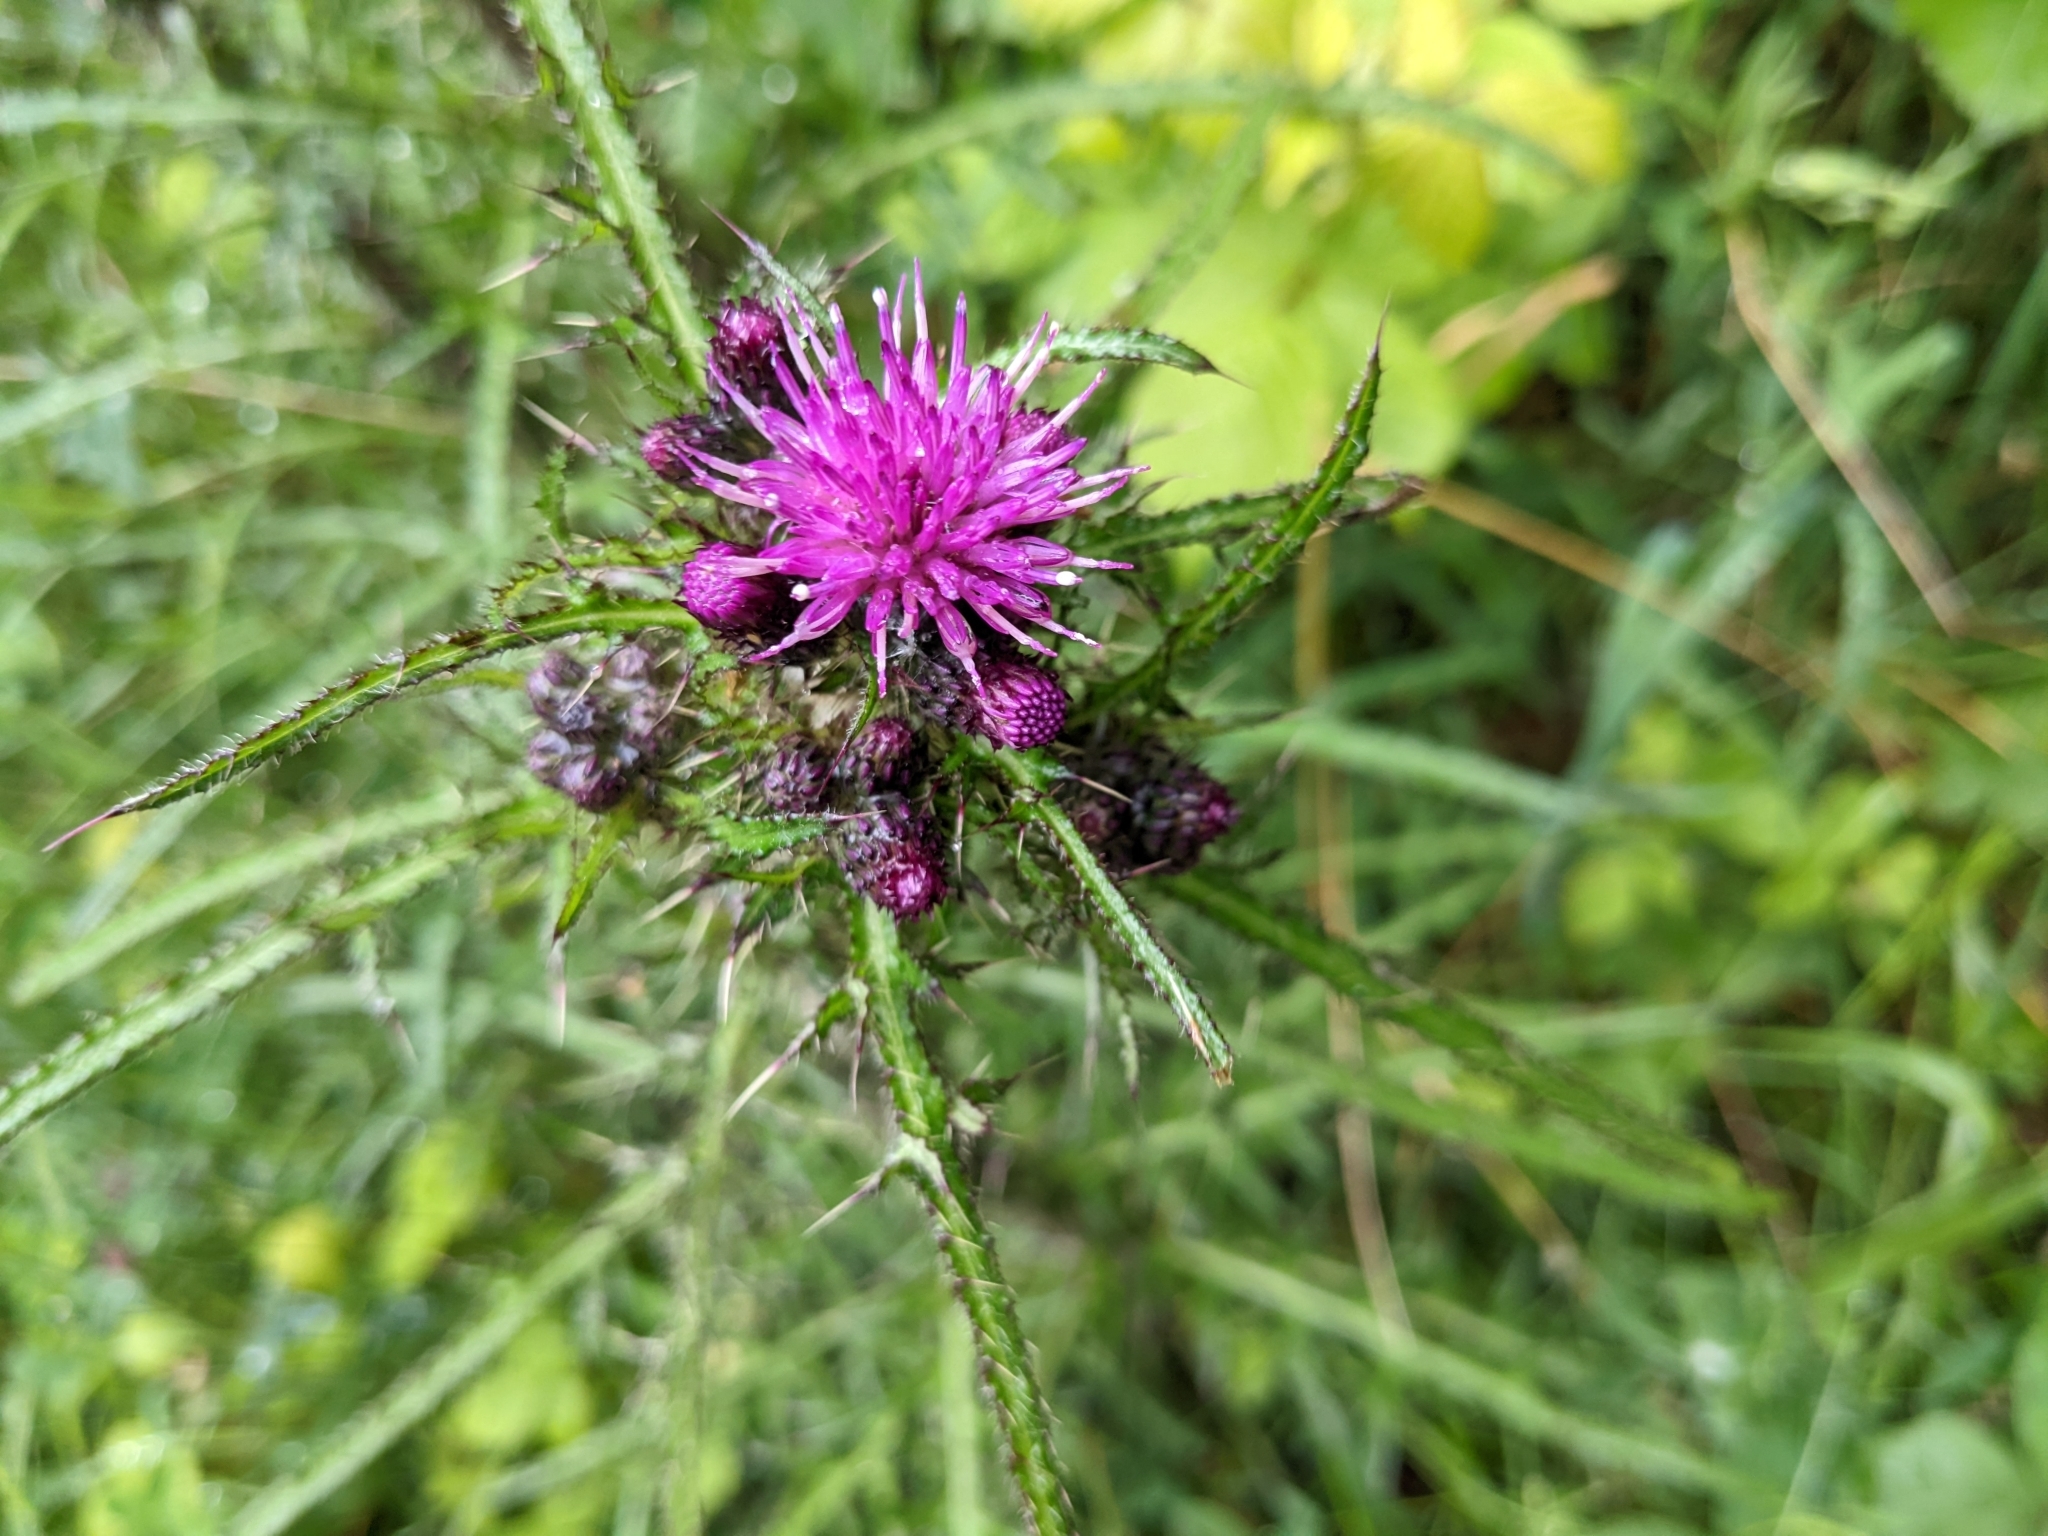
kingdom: Plantae
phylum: Tracheophyta
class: Magnoliopsida
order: Asterales
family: Asteraceae
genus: Cirsium
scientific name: Cirsium palustre
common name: Marsh thistle
